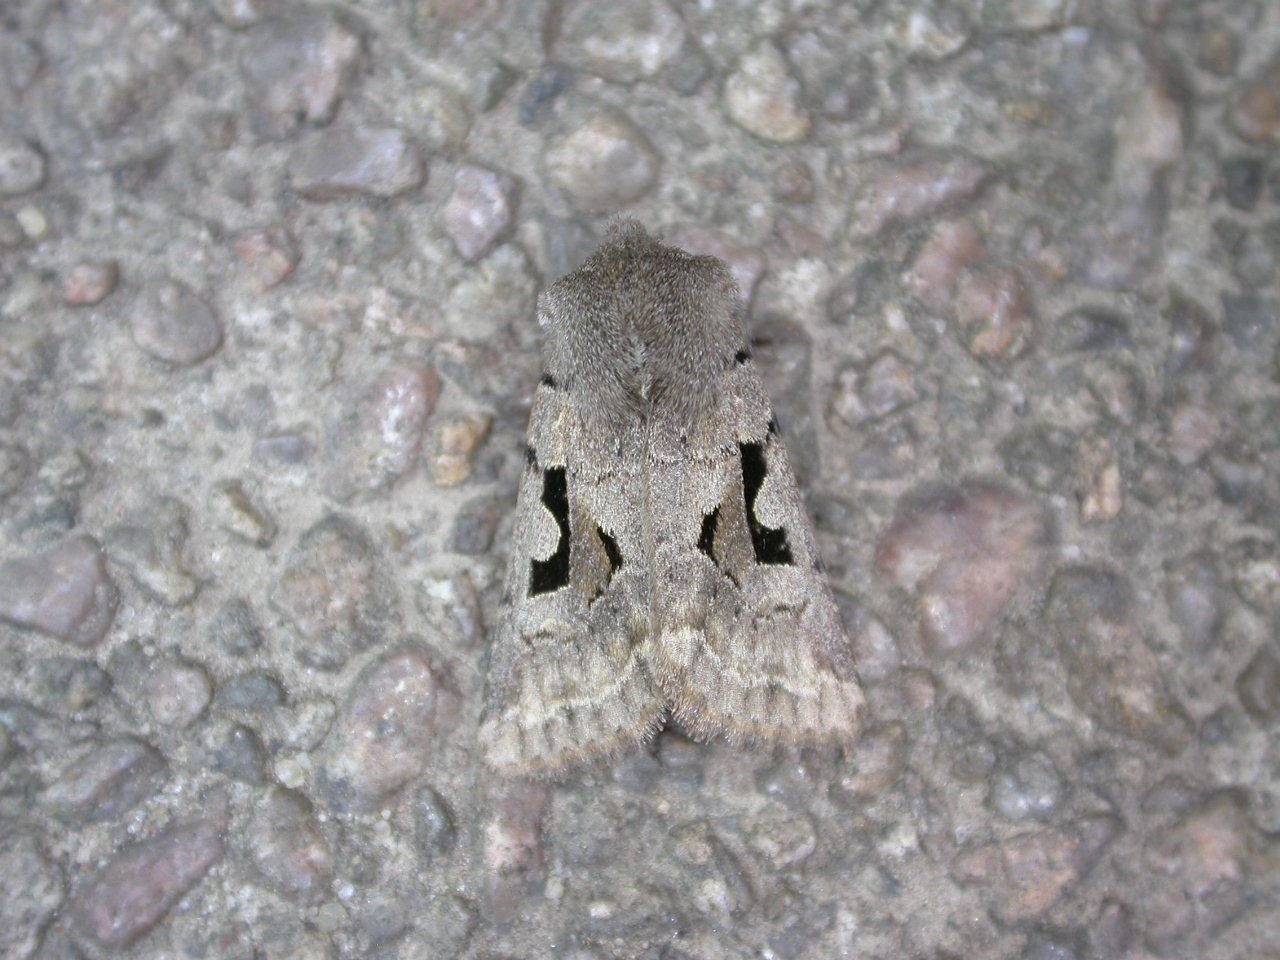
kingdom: Animalia
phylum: Arthropoda
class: Insecta
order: Lepidoptera
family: Noctuidae
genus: Orthosia
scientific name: Orthosia gothica
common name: Hebrew character
